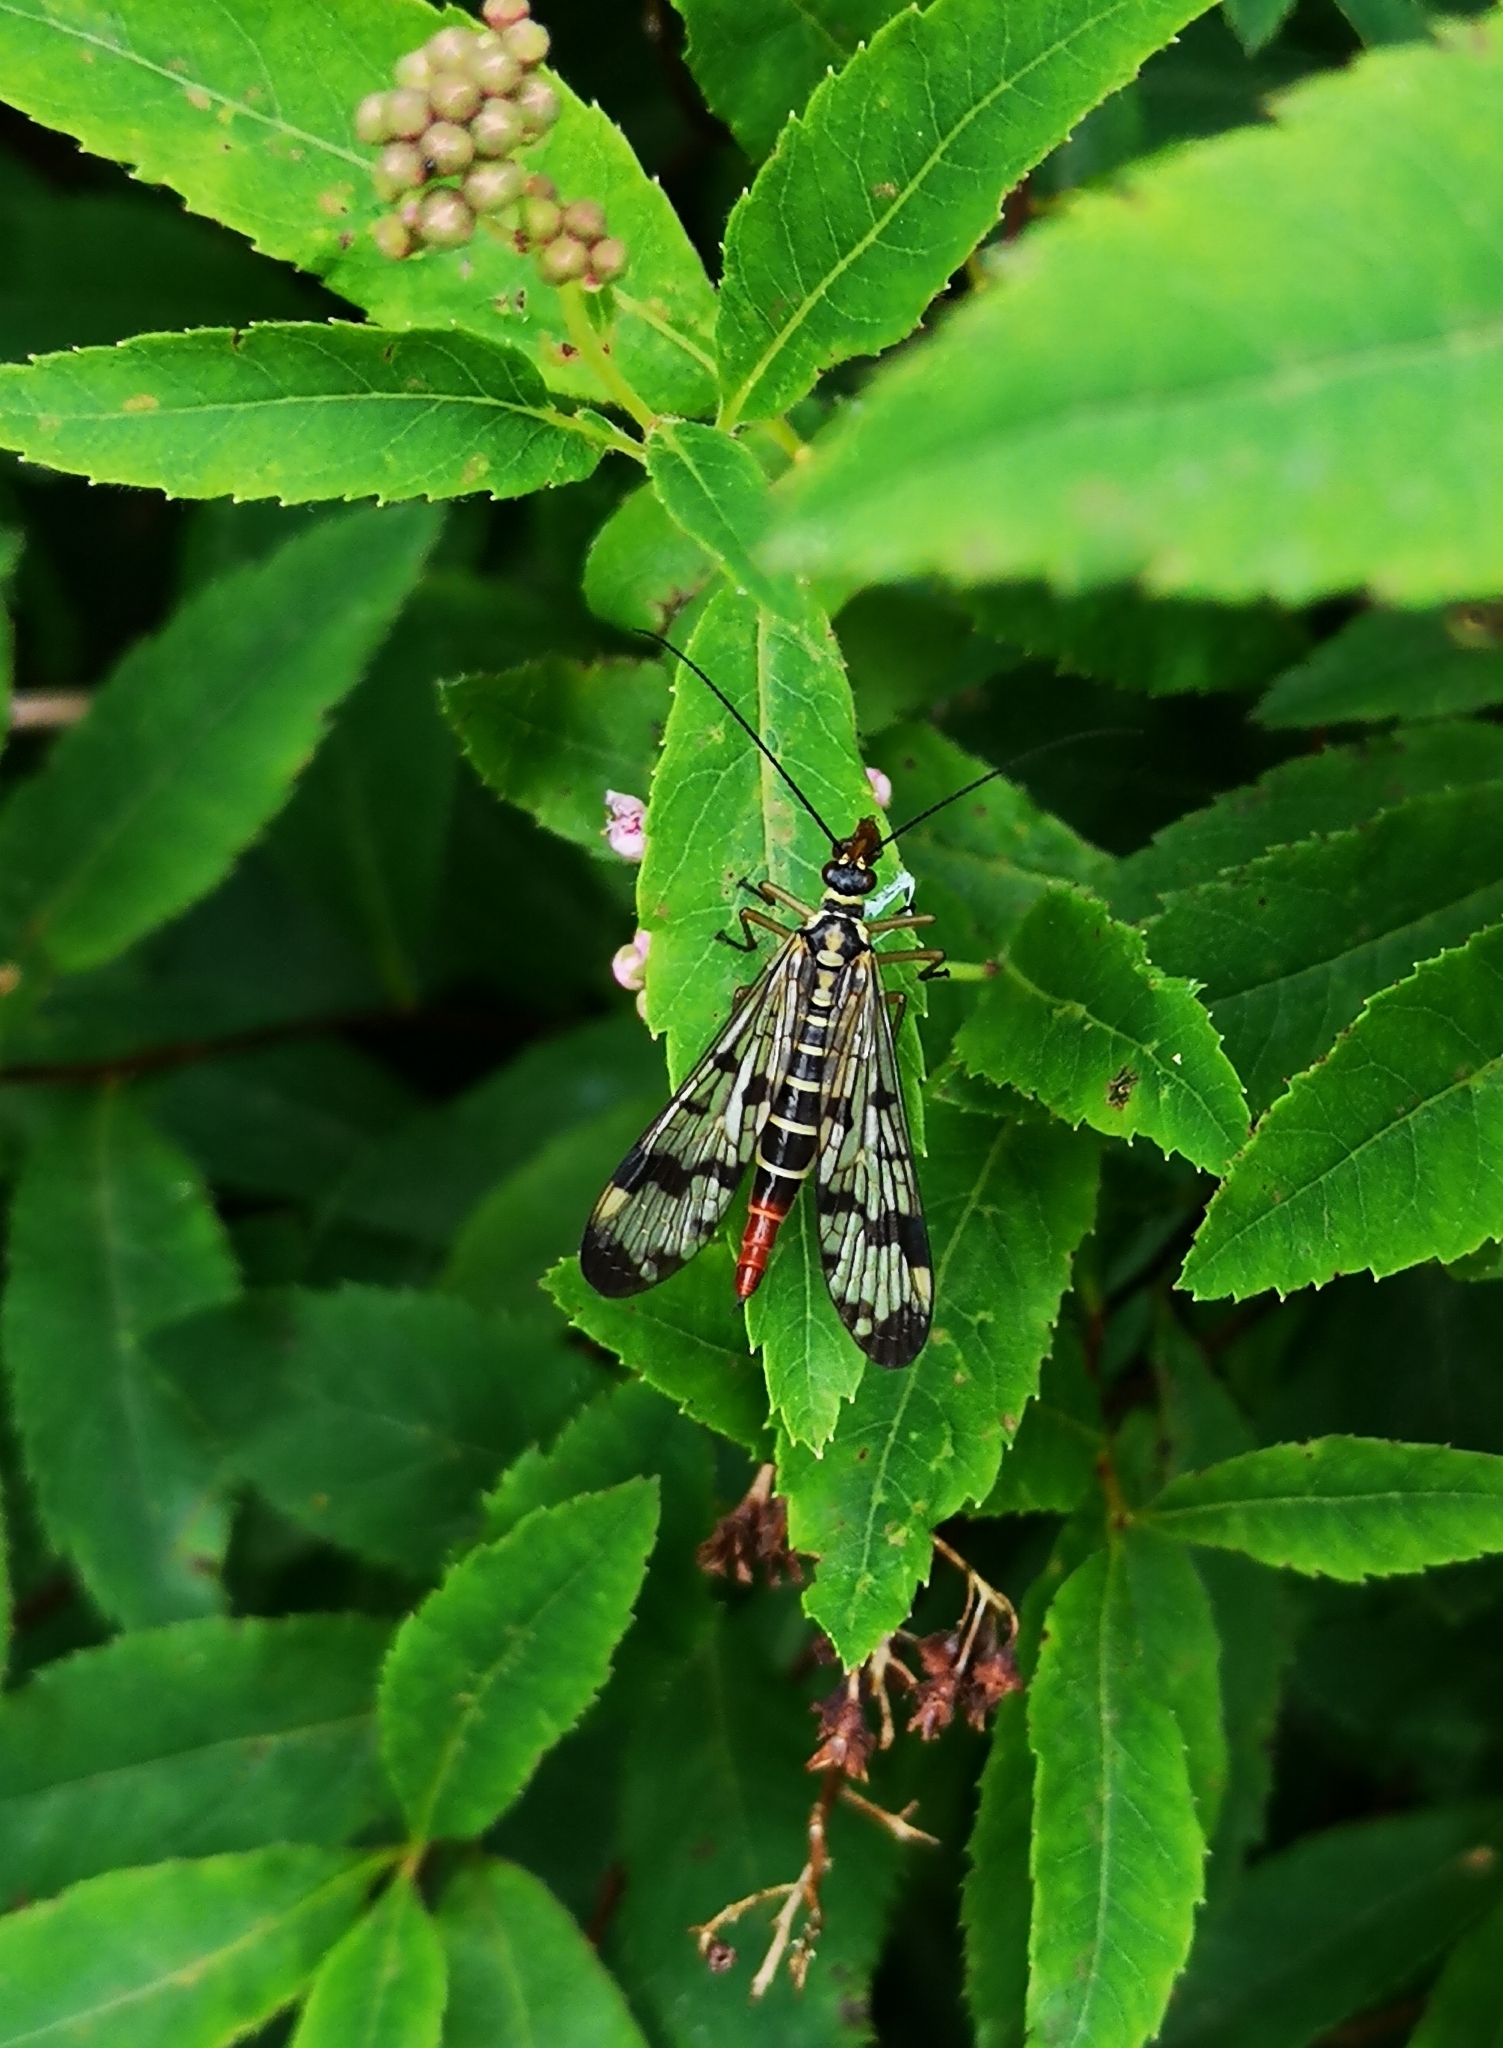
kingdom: Animalia
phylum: Arthropoda
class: Insecta
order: Mecoptera
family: Panorpidae
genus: Panorpa
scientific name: Panorpa communis
